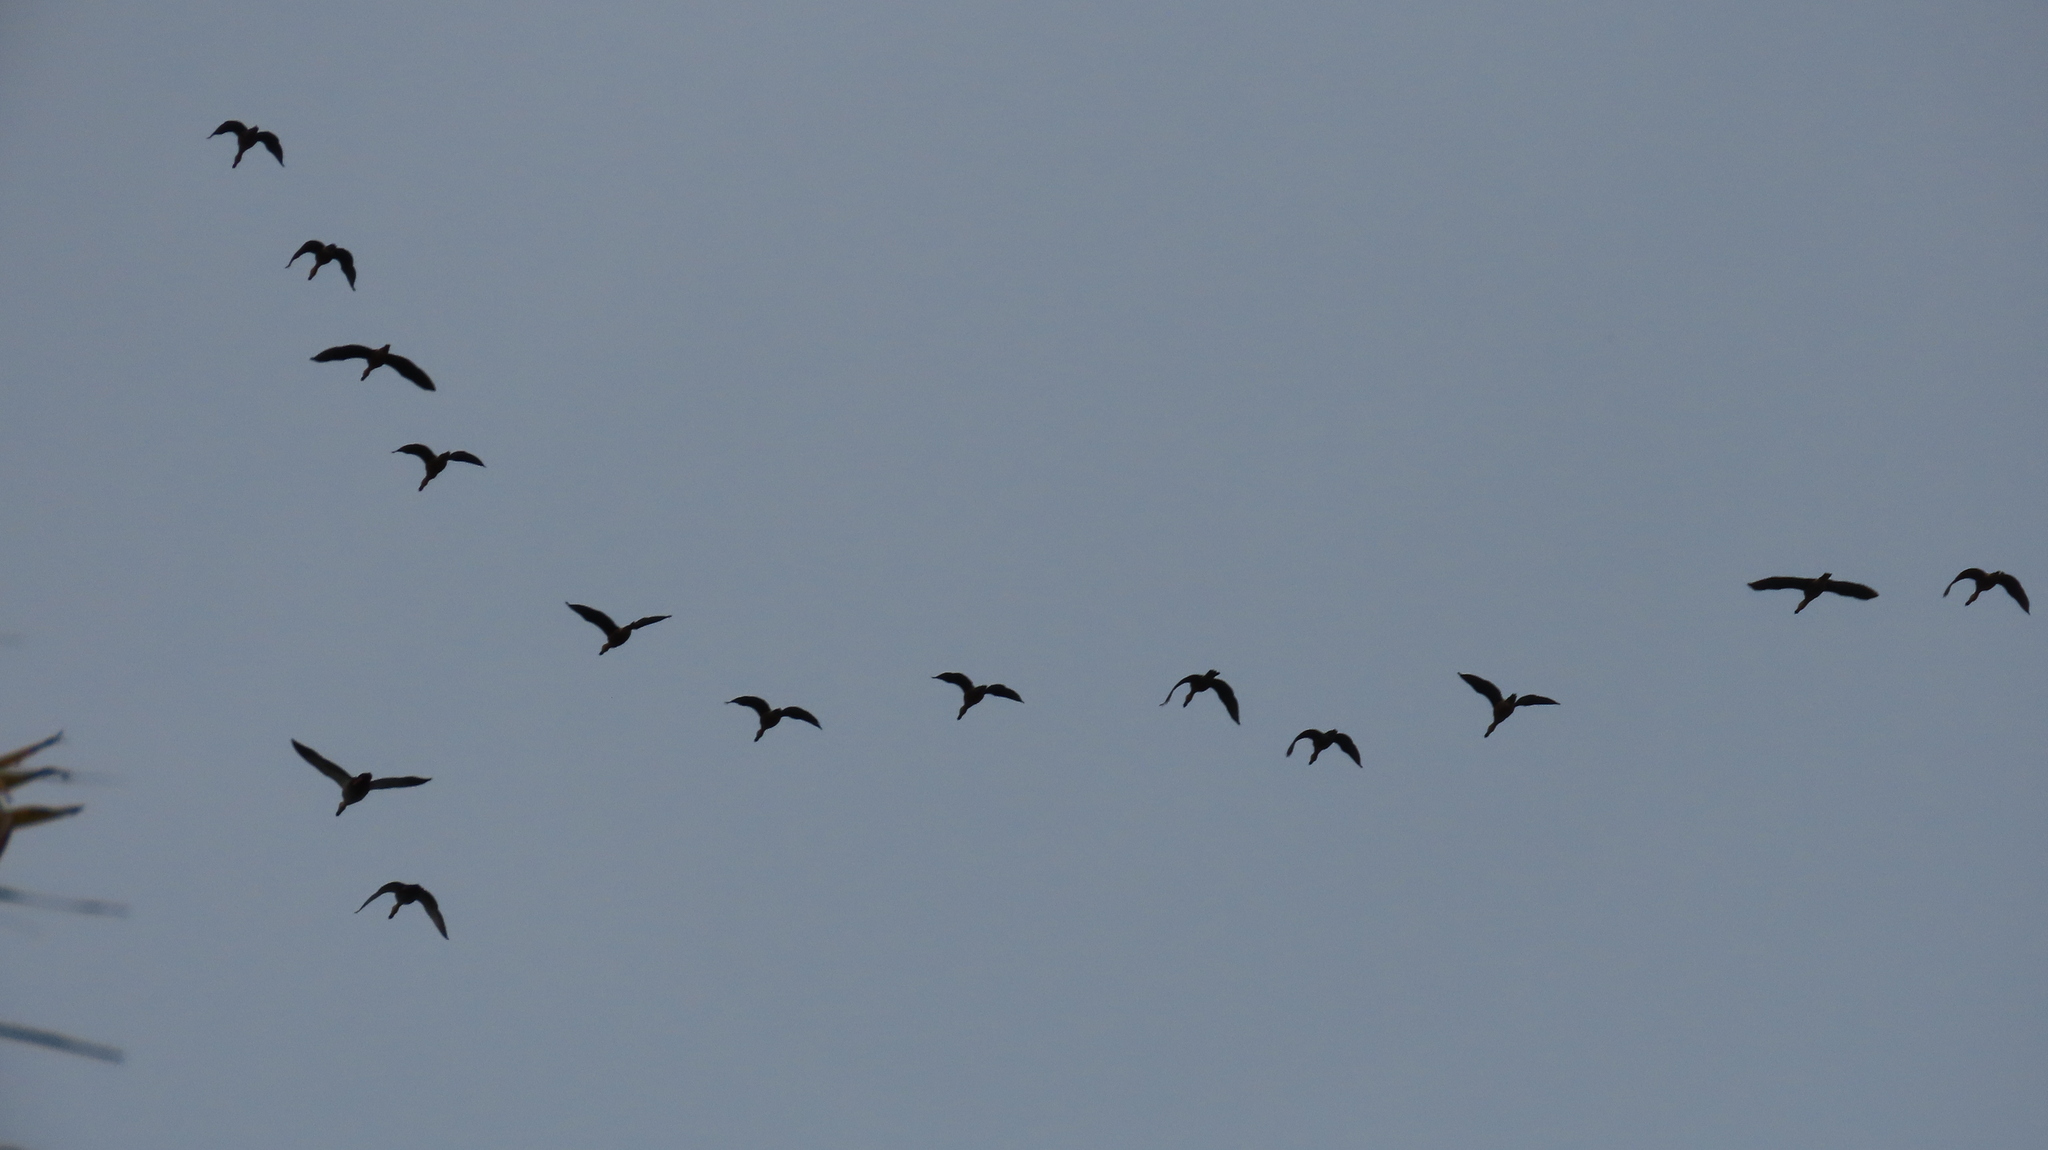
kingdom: Animalia
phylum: Chordata
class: Aves
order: Anseriformes
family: Anatidae
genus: Dendrocygna
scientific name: Dendrocygna javanica
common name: Lesser whistling-duck
